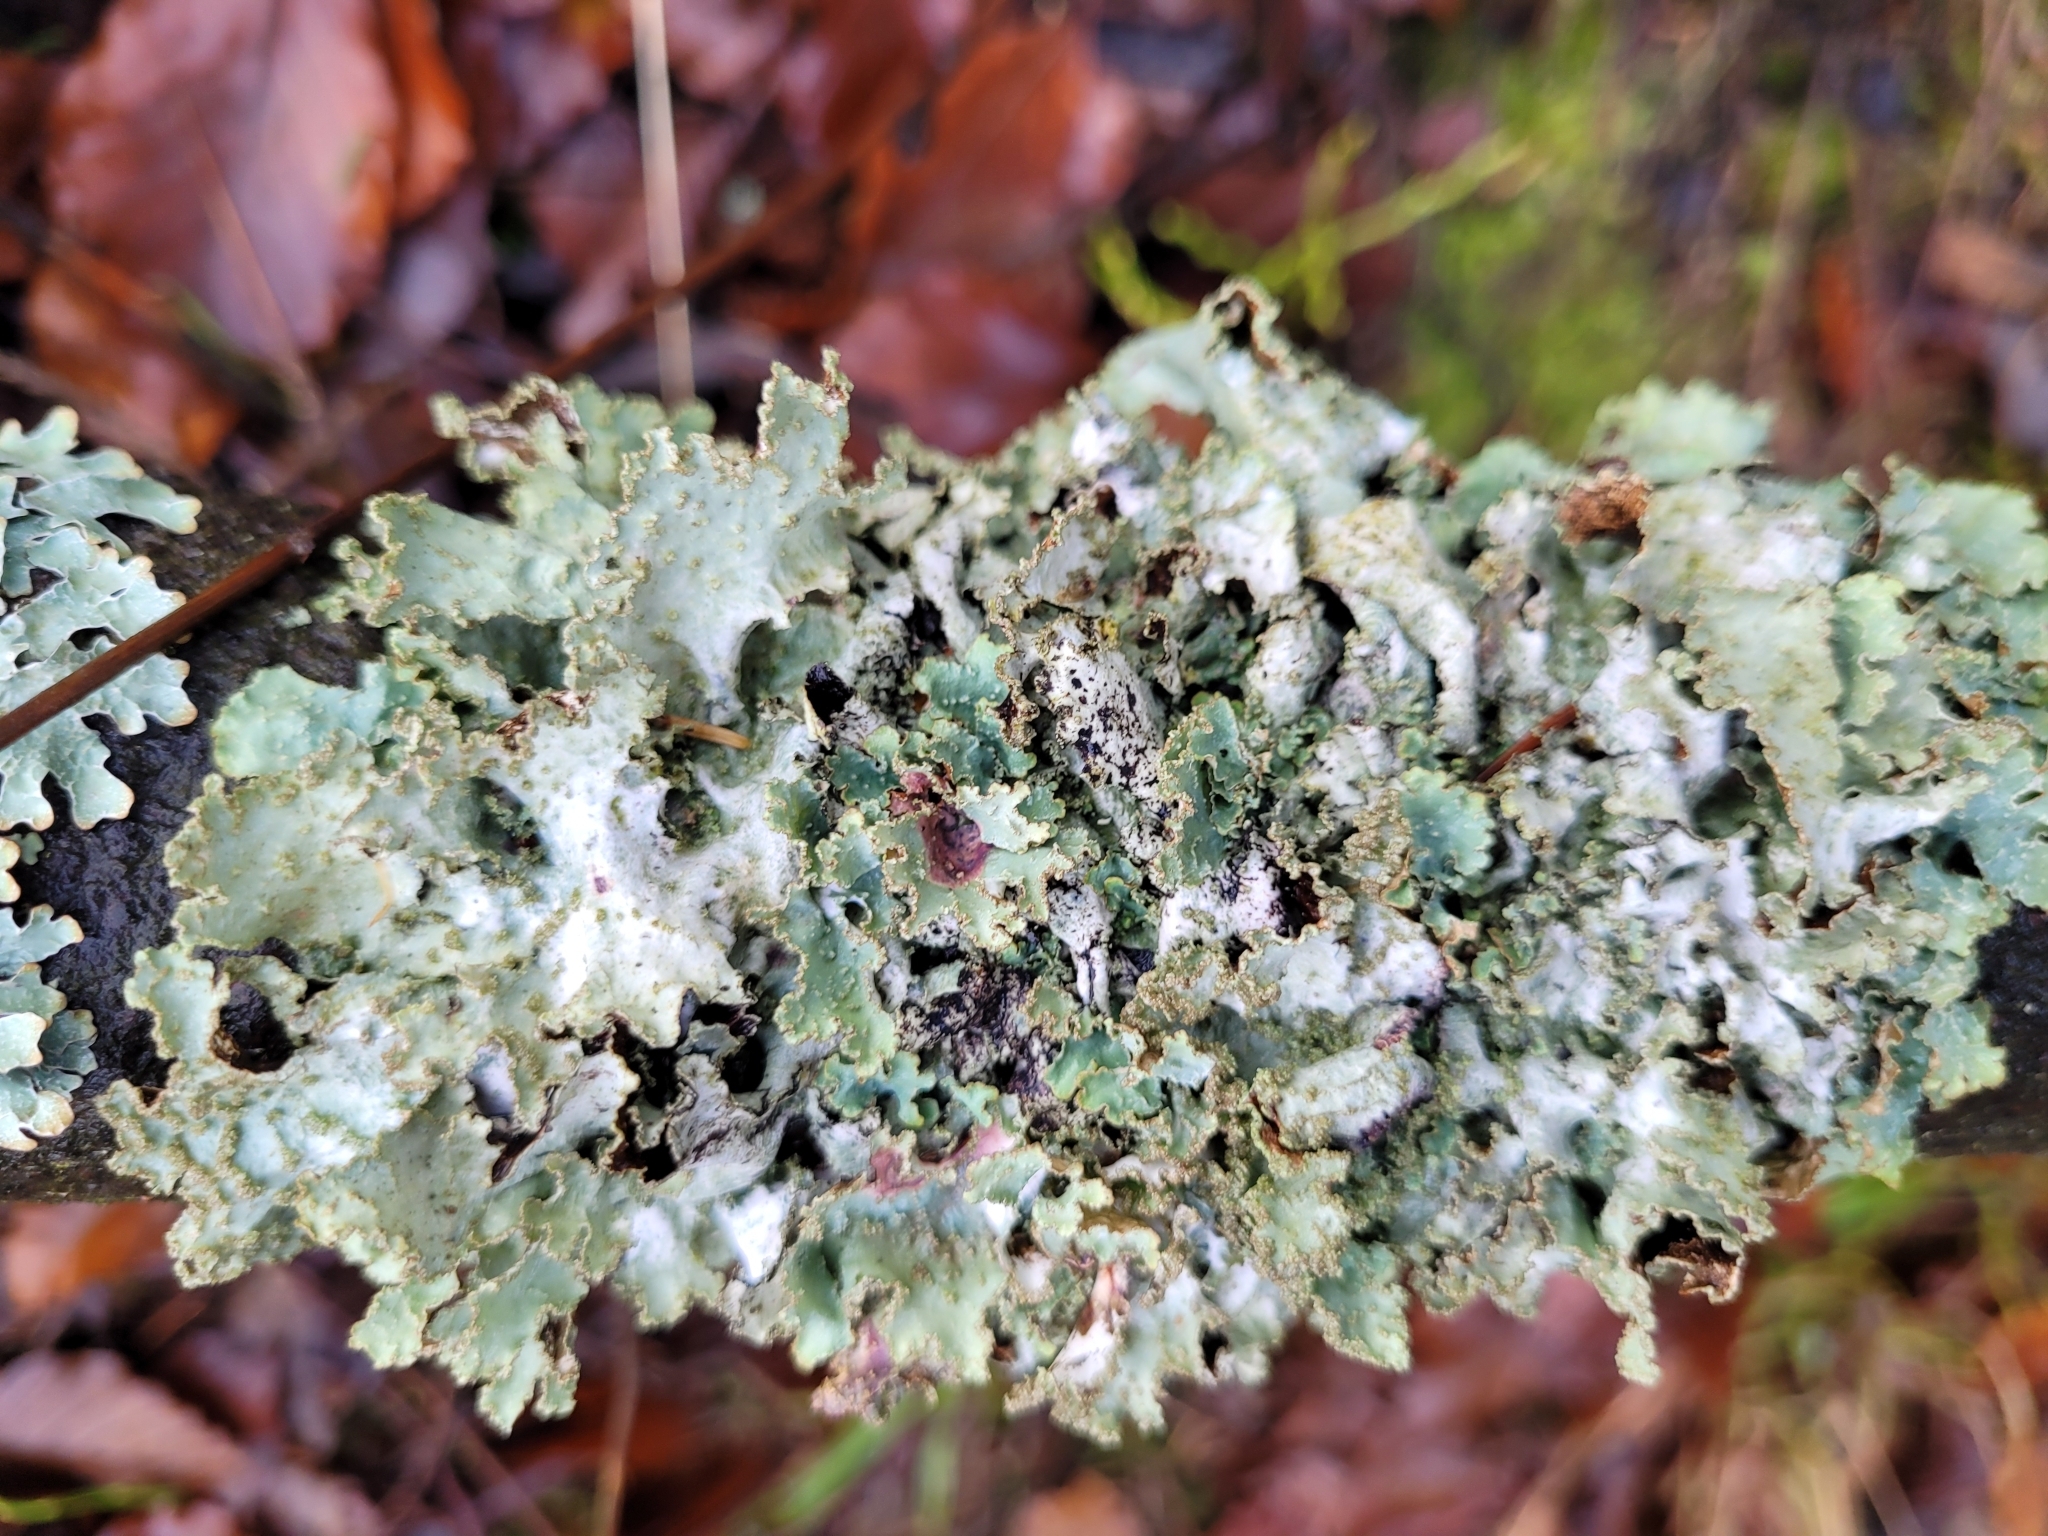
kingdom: Fungi
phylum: Ascomycota
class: Lecanoromycetes
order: Lecanorales
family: Parmeliaceae
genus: Platismatia
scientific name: Platismatia glauca
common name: Varied rag lichen
